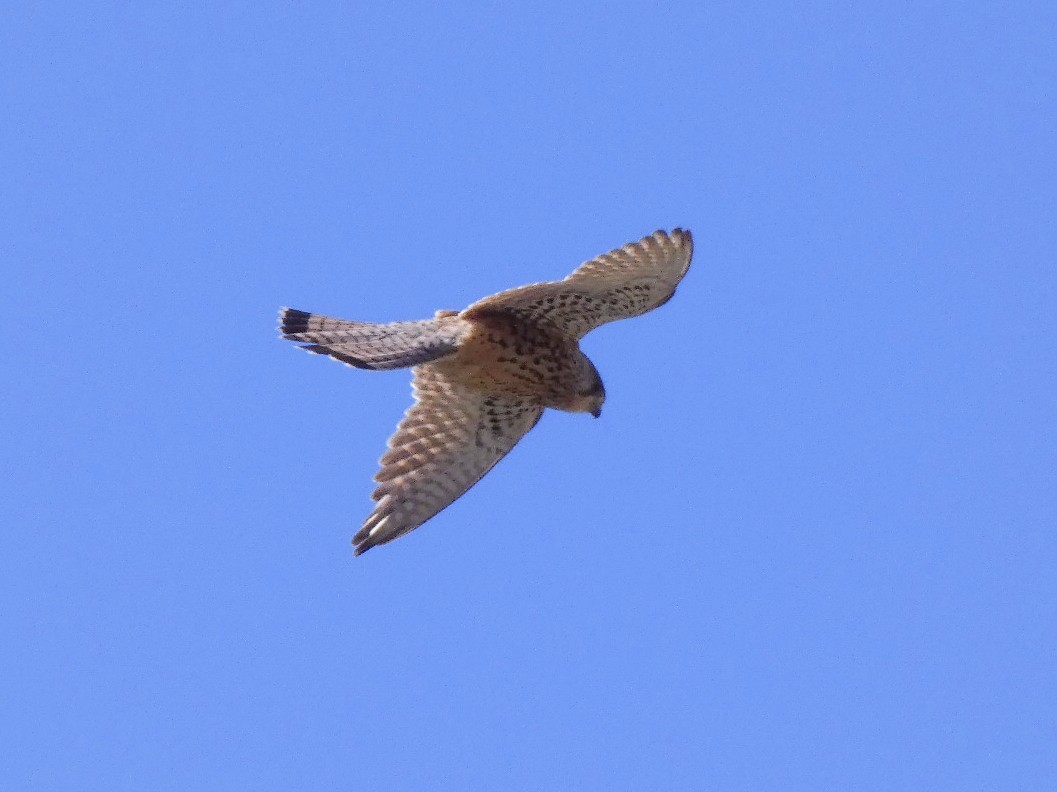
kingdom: Animalia
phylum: Chordata
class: Aves
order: Falconiformes
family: Falconidae
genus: Falco
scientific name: Falco tinnunculus
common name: Common kestrel
